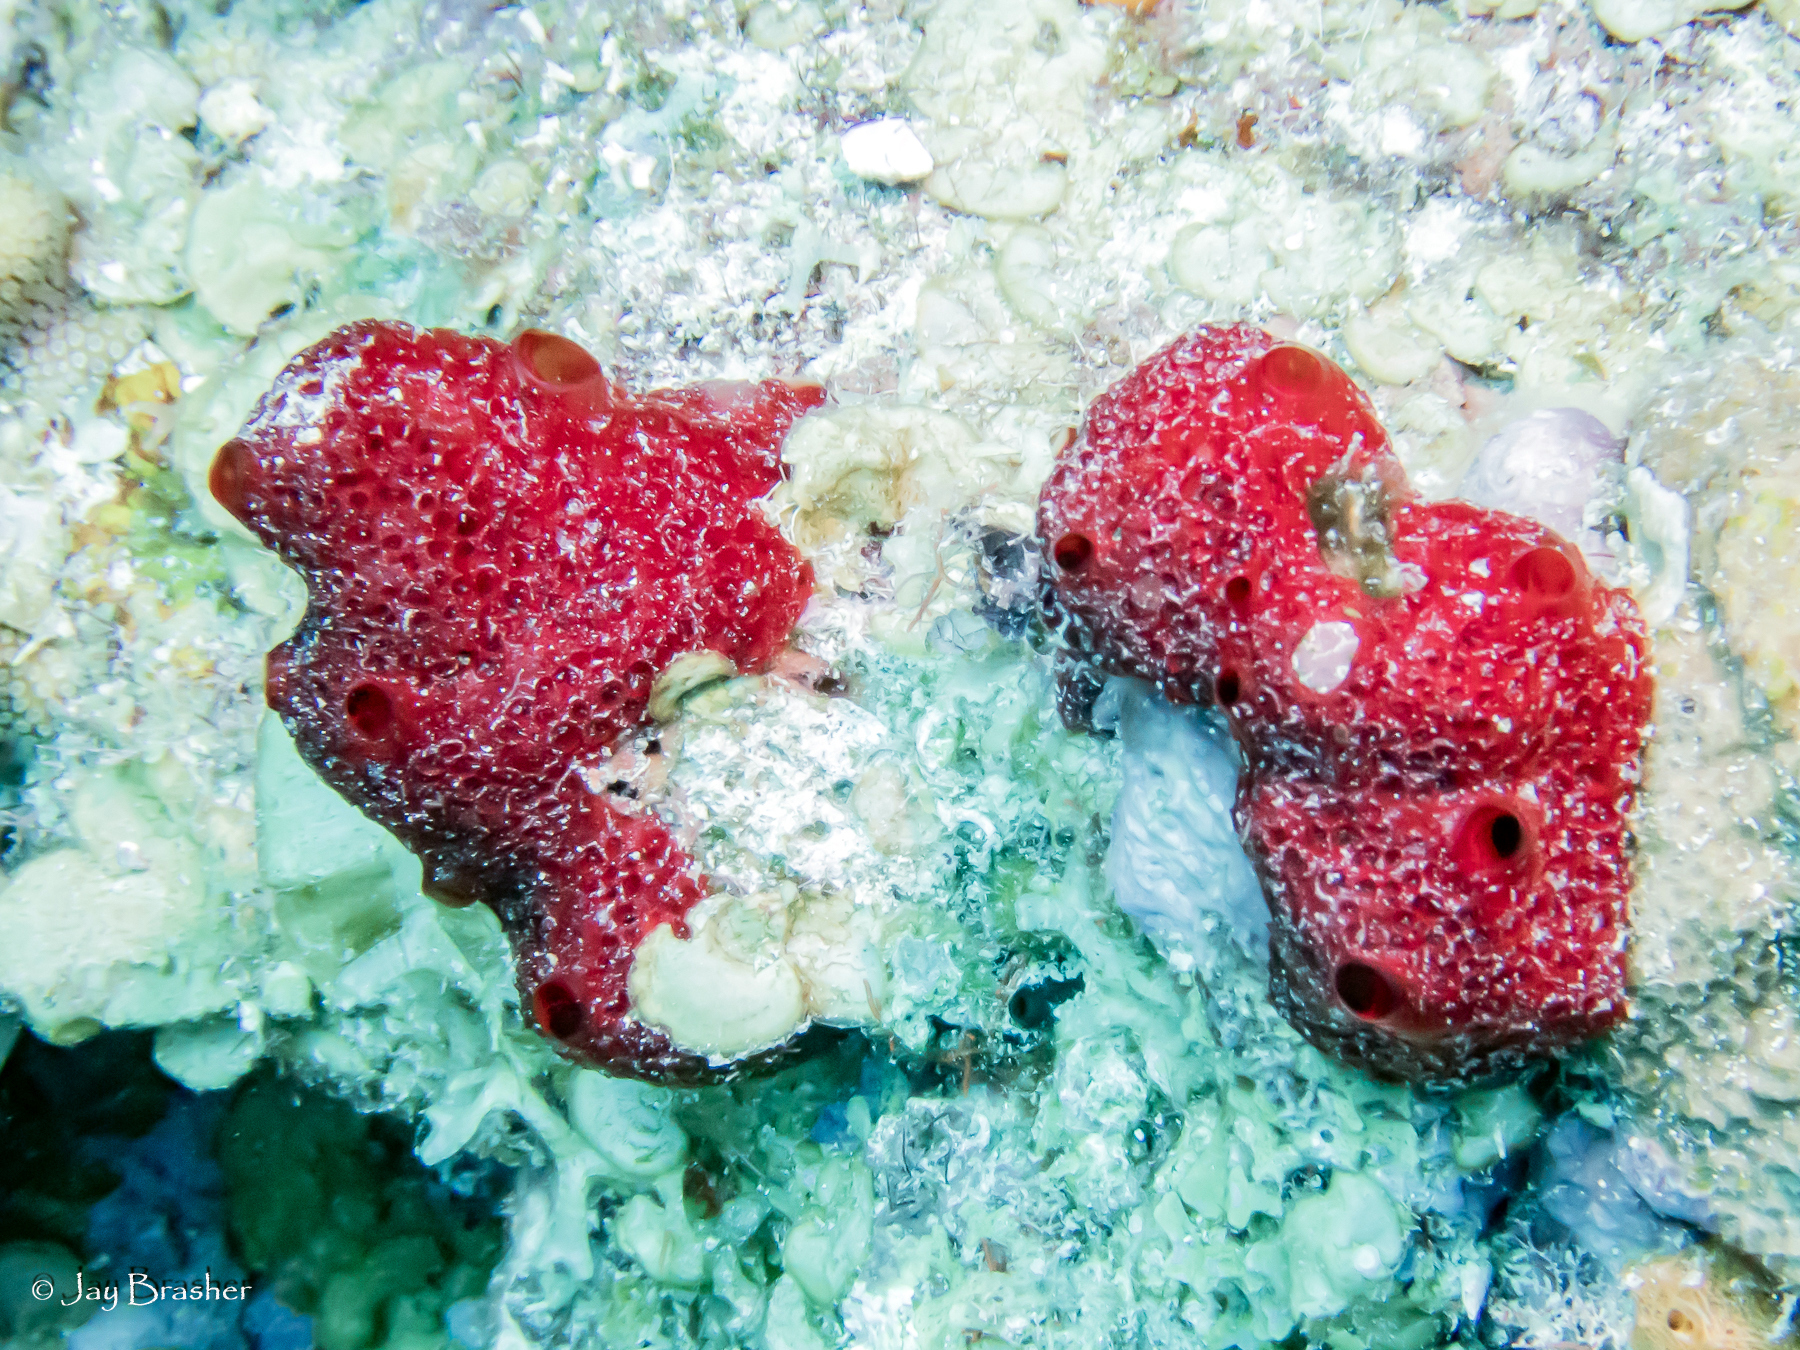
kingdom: Animalia
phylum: Porifera
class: Demospongiae
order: Poecilosclerida
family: Hymedesmiidae
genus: Phorbas
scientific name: Phorbas amaranthus
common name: Red sieve encrusting sponge
